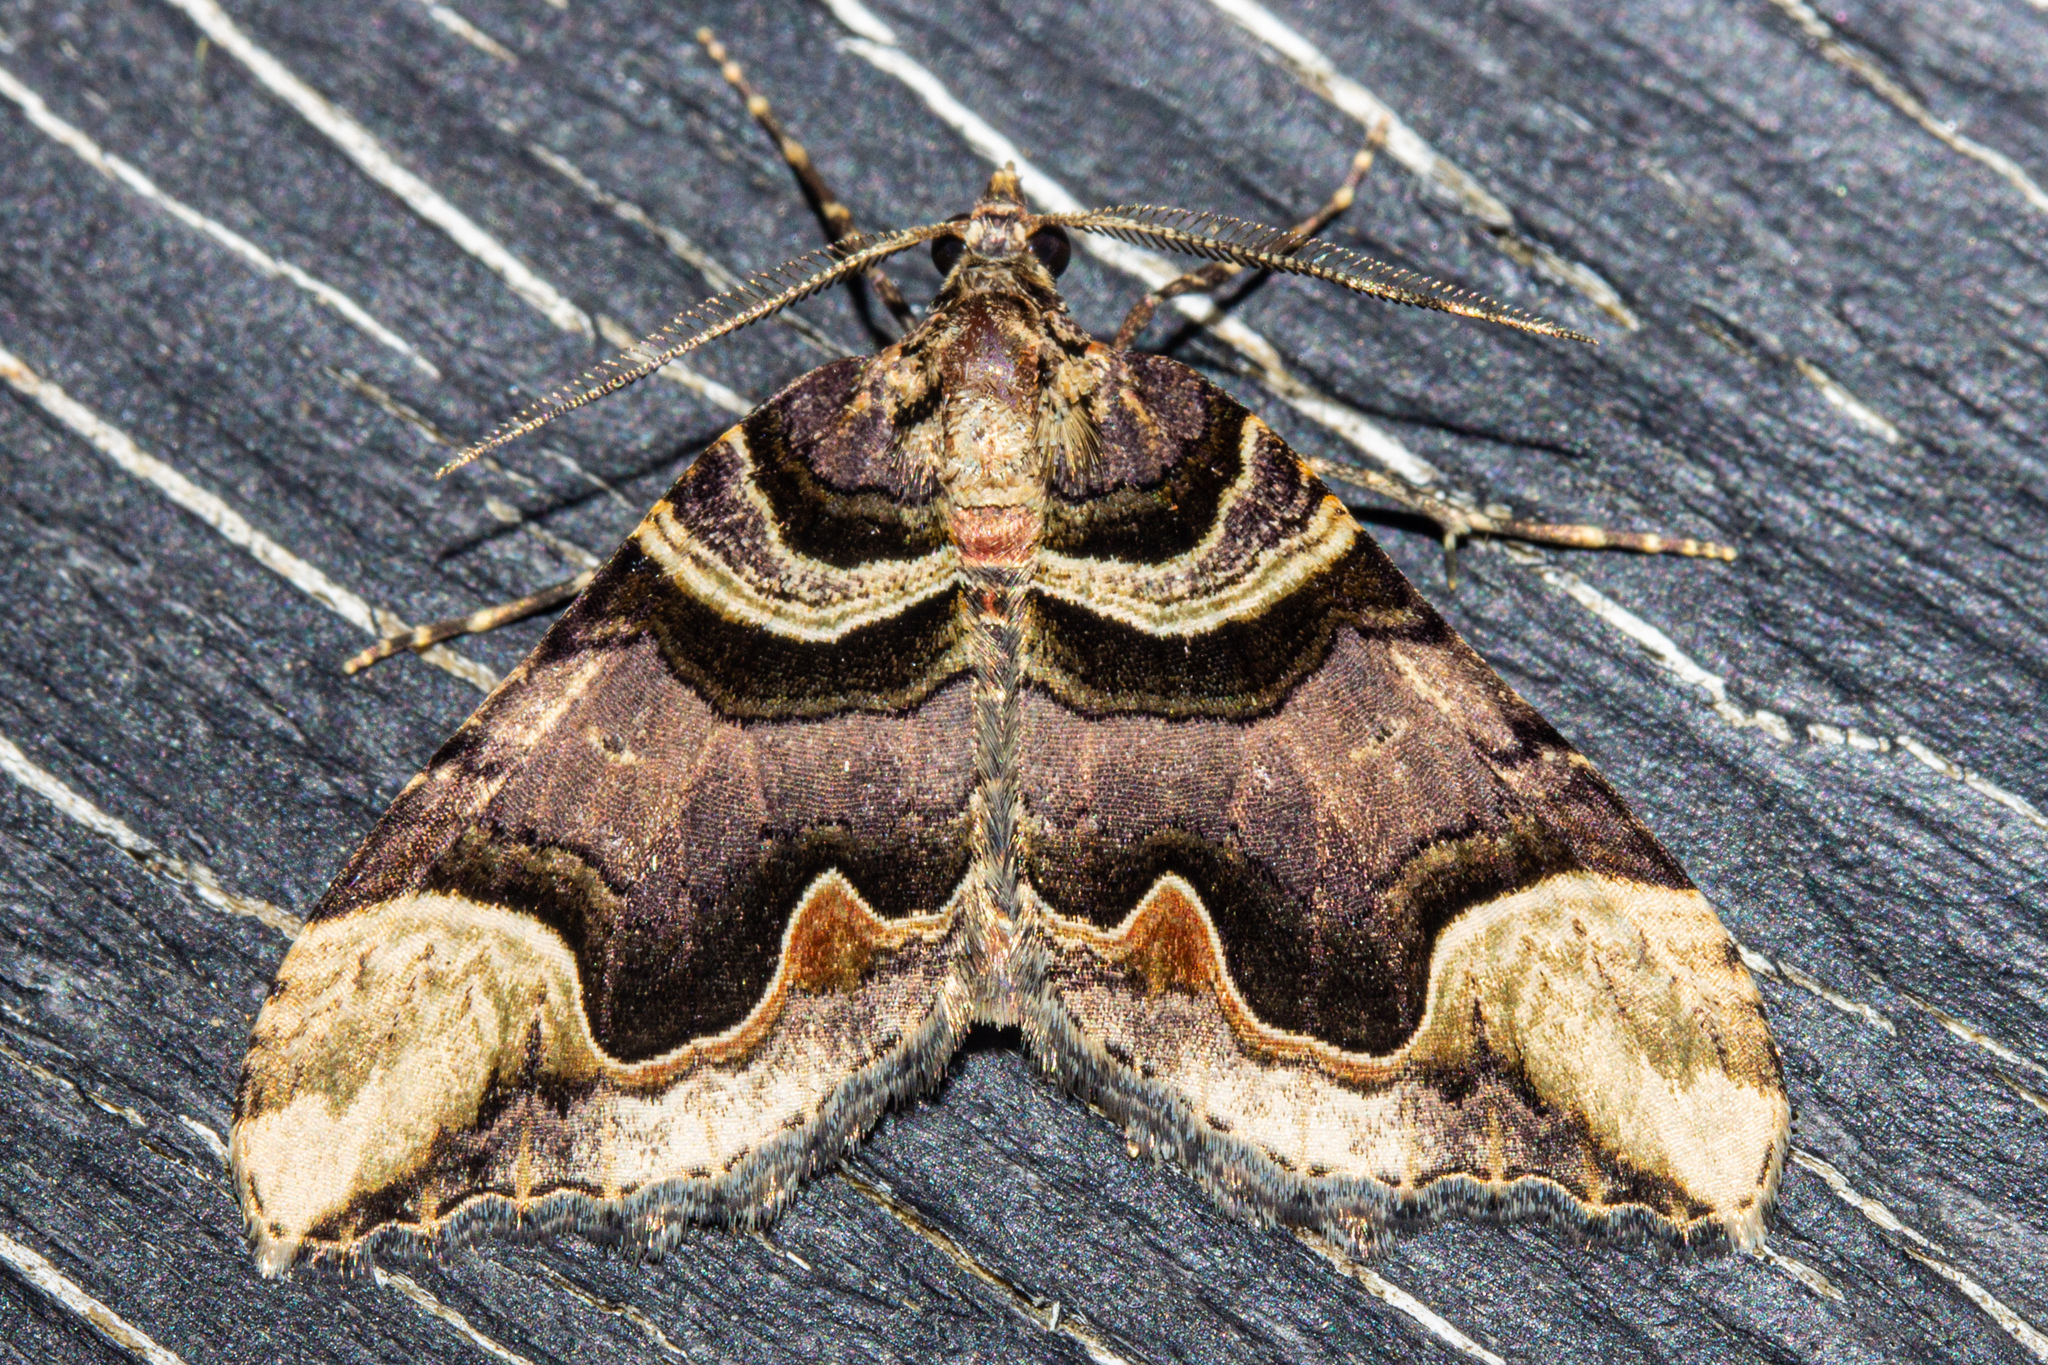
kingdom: Animalia
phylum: Arthropoda
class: Insecta
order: Lepidoptera
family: Geometridae
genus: Asaphodes
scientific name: Asaphodes chlamydota
